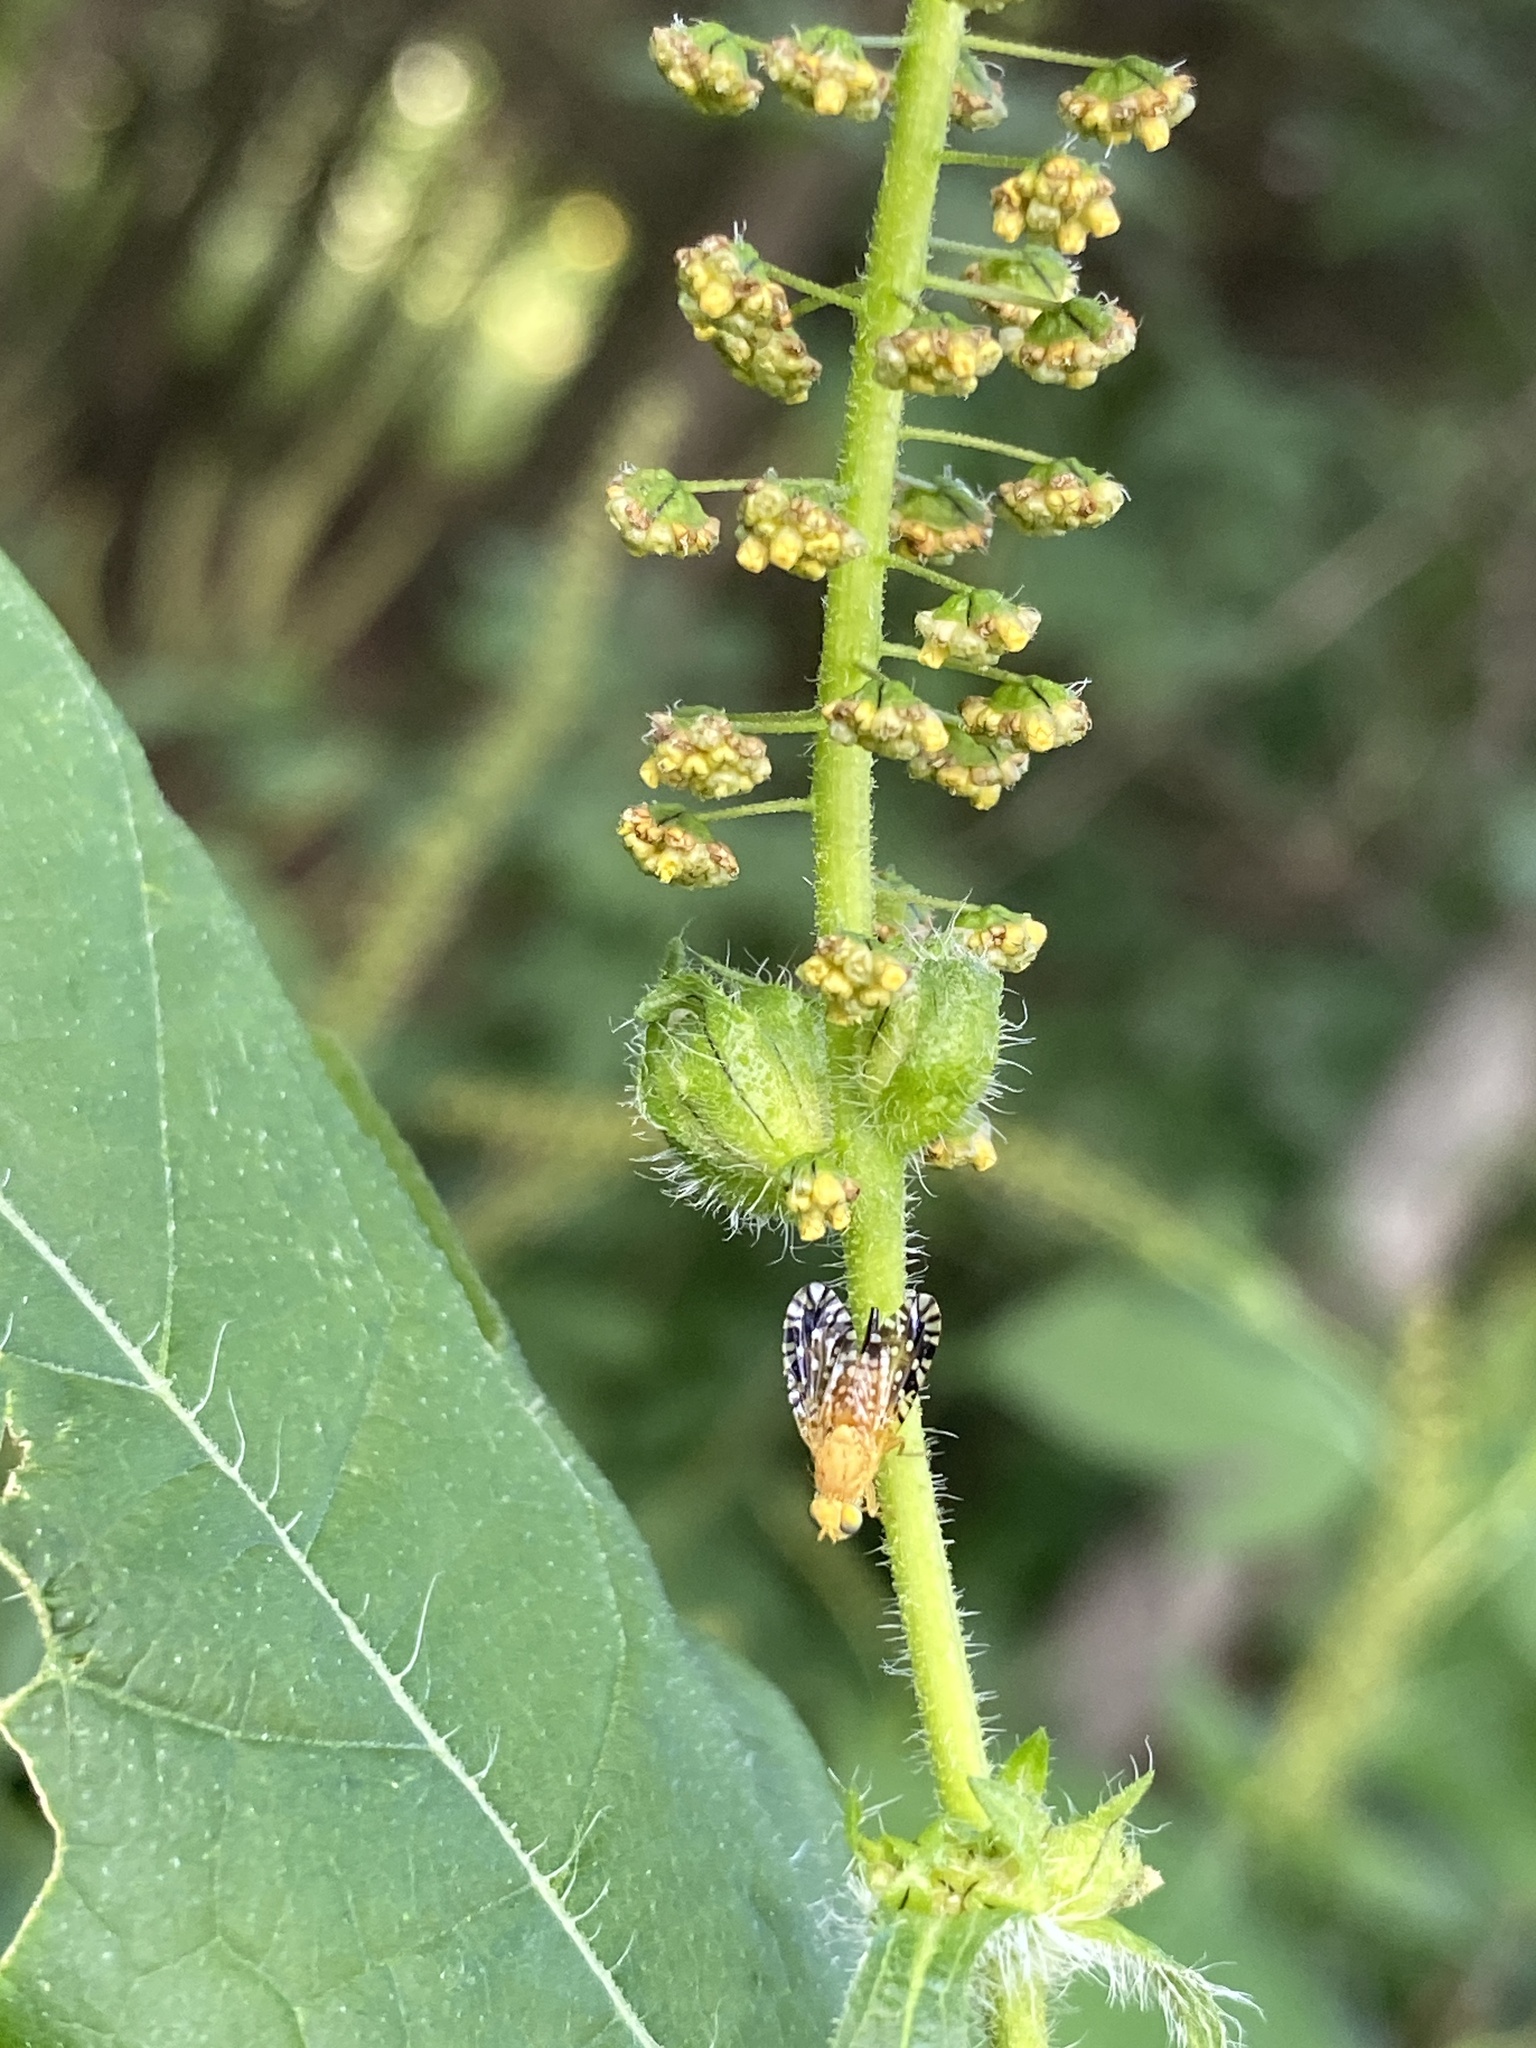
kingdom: Animalia
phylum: Arthropoda
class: Insecta
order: Diptera
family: Tephritidae
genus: Euaresta
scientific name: Euaresta festiva
